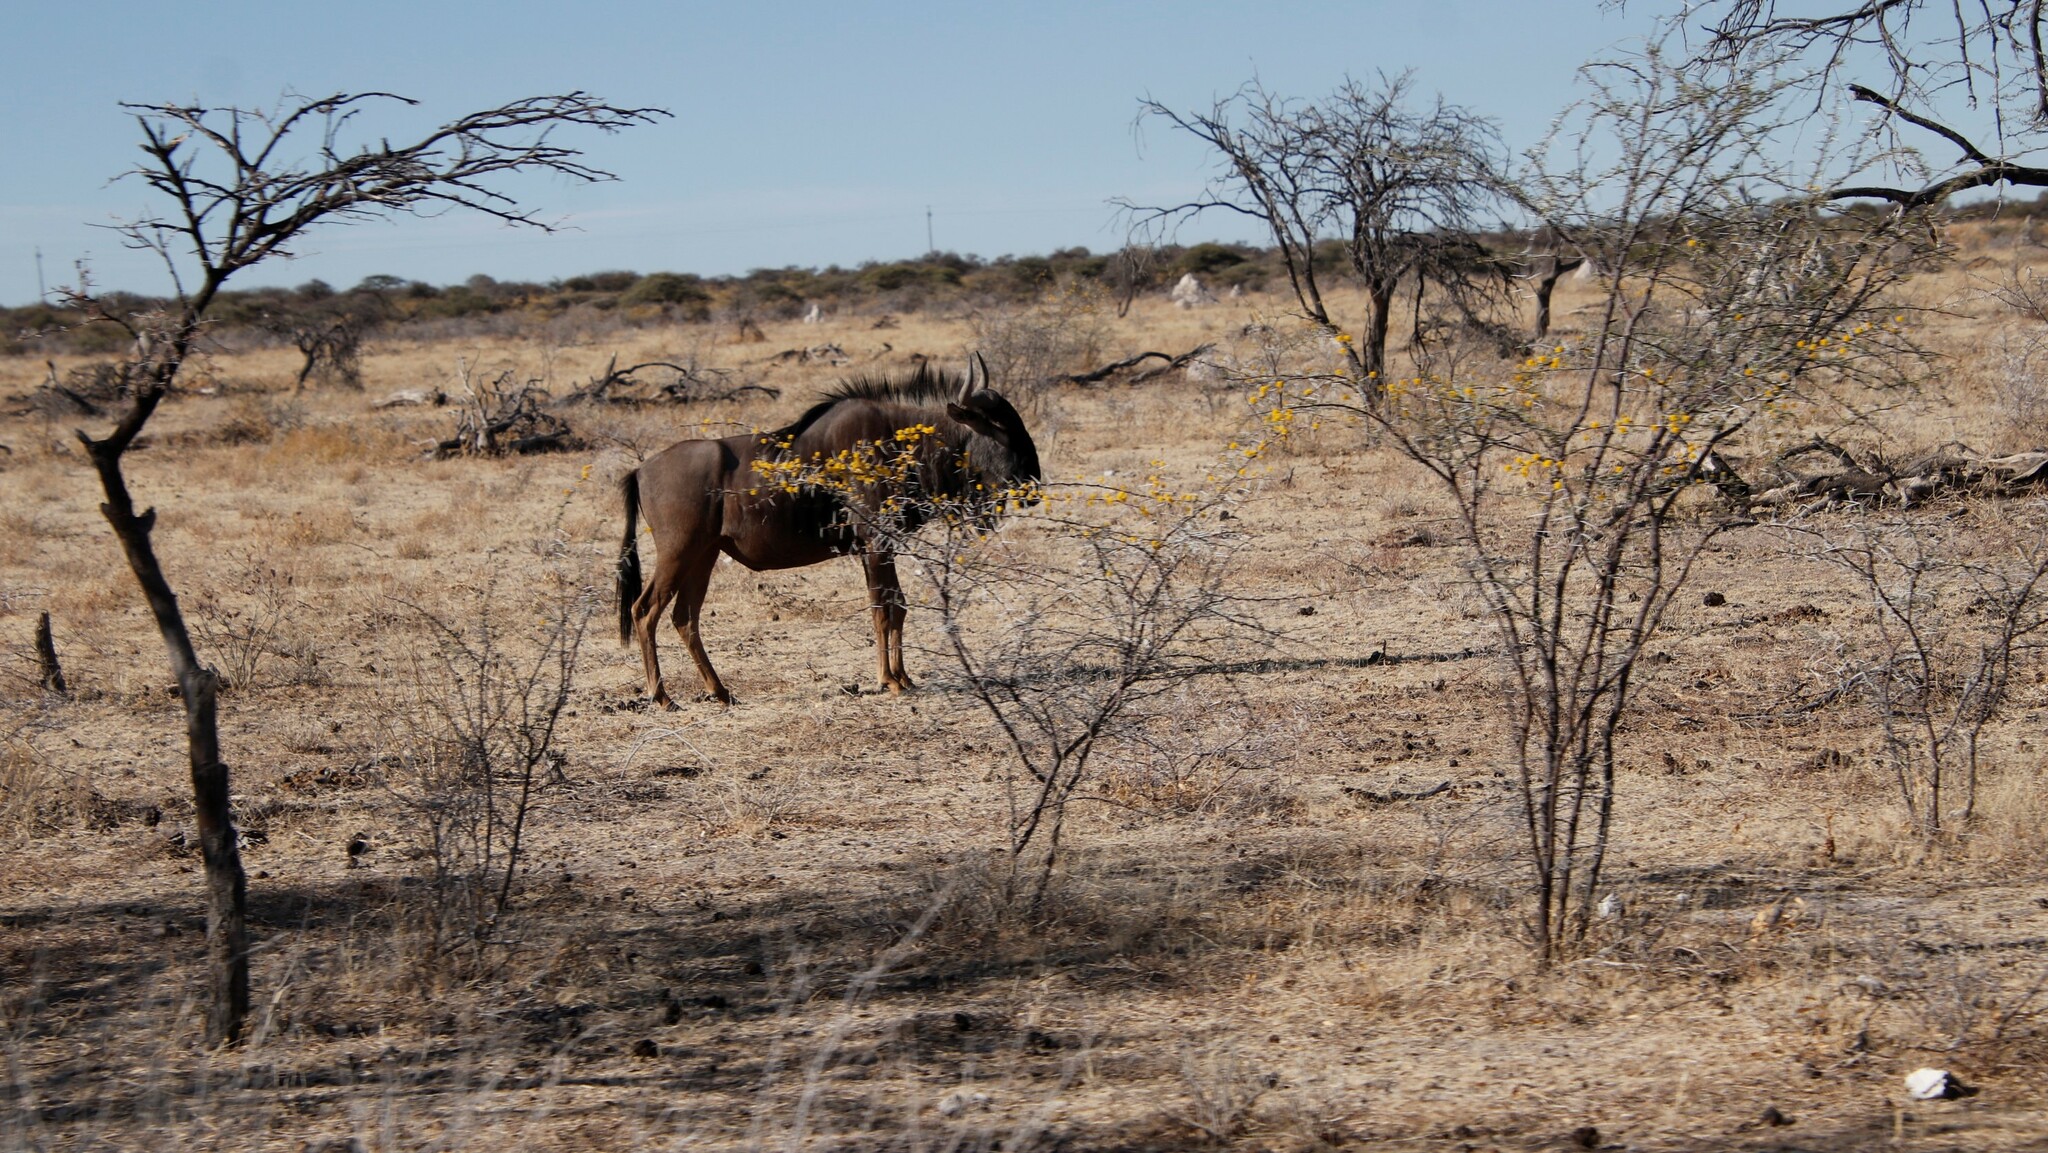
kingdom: Animalia
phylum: Chordata
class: Mammalia
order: Artiodactyla
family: Bovidae
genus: Connochaetes
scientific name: Connochaetes taurinus
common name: Blue wildebeest
